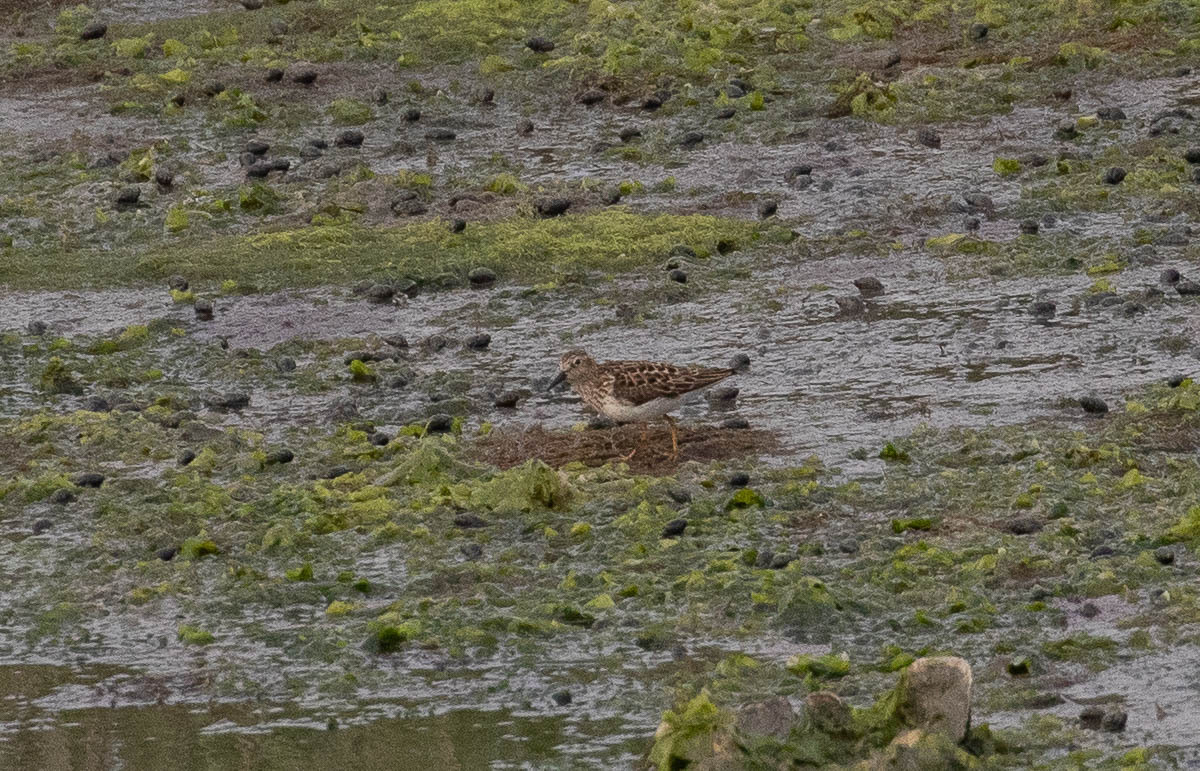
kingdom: Animalia
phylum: Chordata
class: Aves
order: Charadriiformes
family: Scolopacidae
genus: Calidris
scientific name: Calidris melanotos
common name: Pectoral sandpiper
